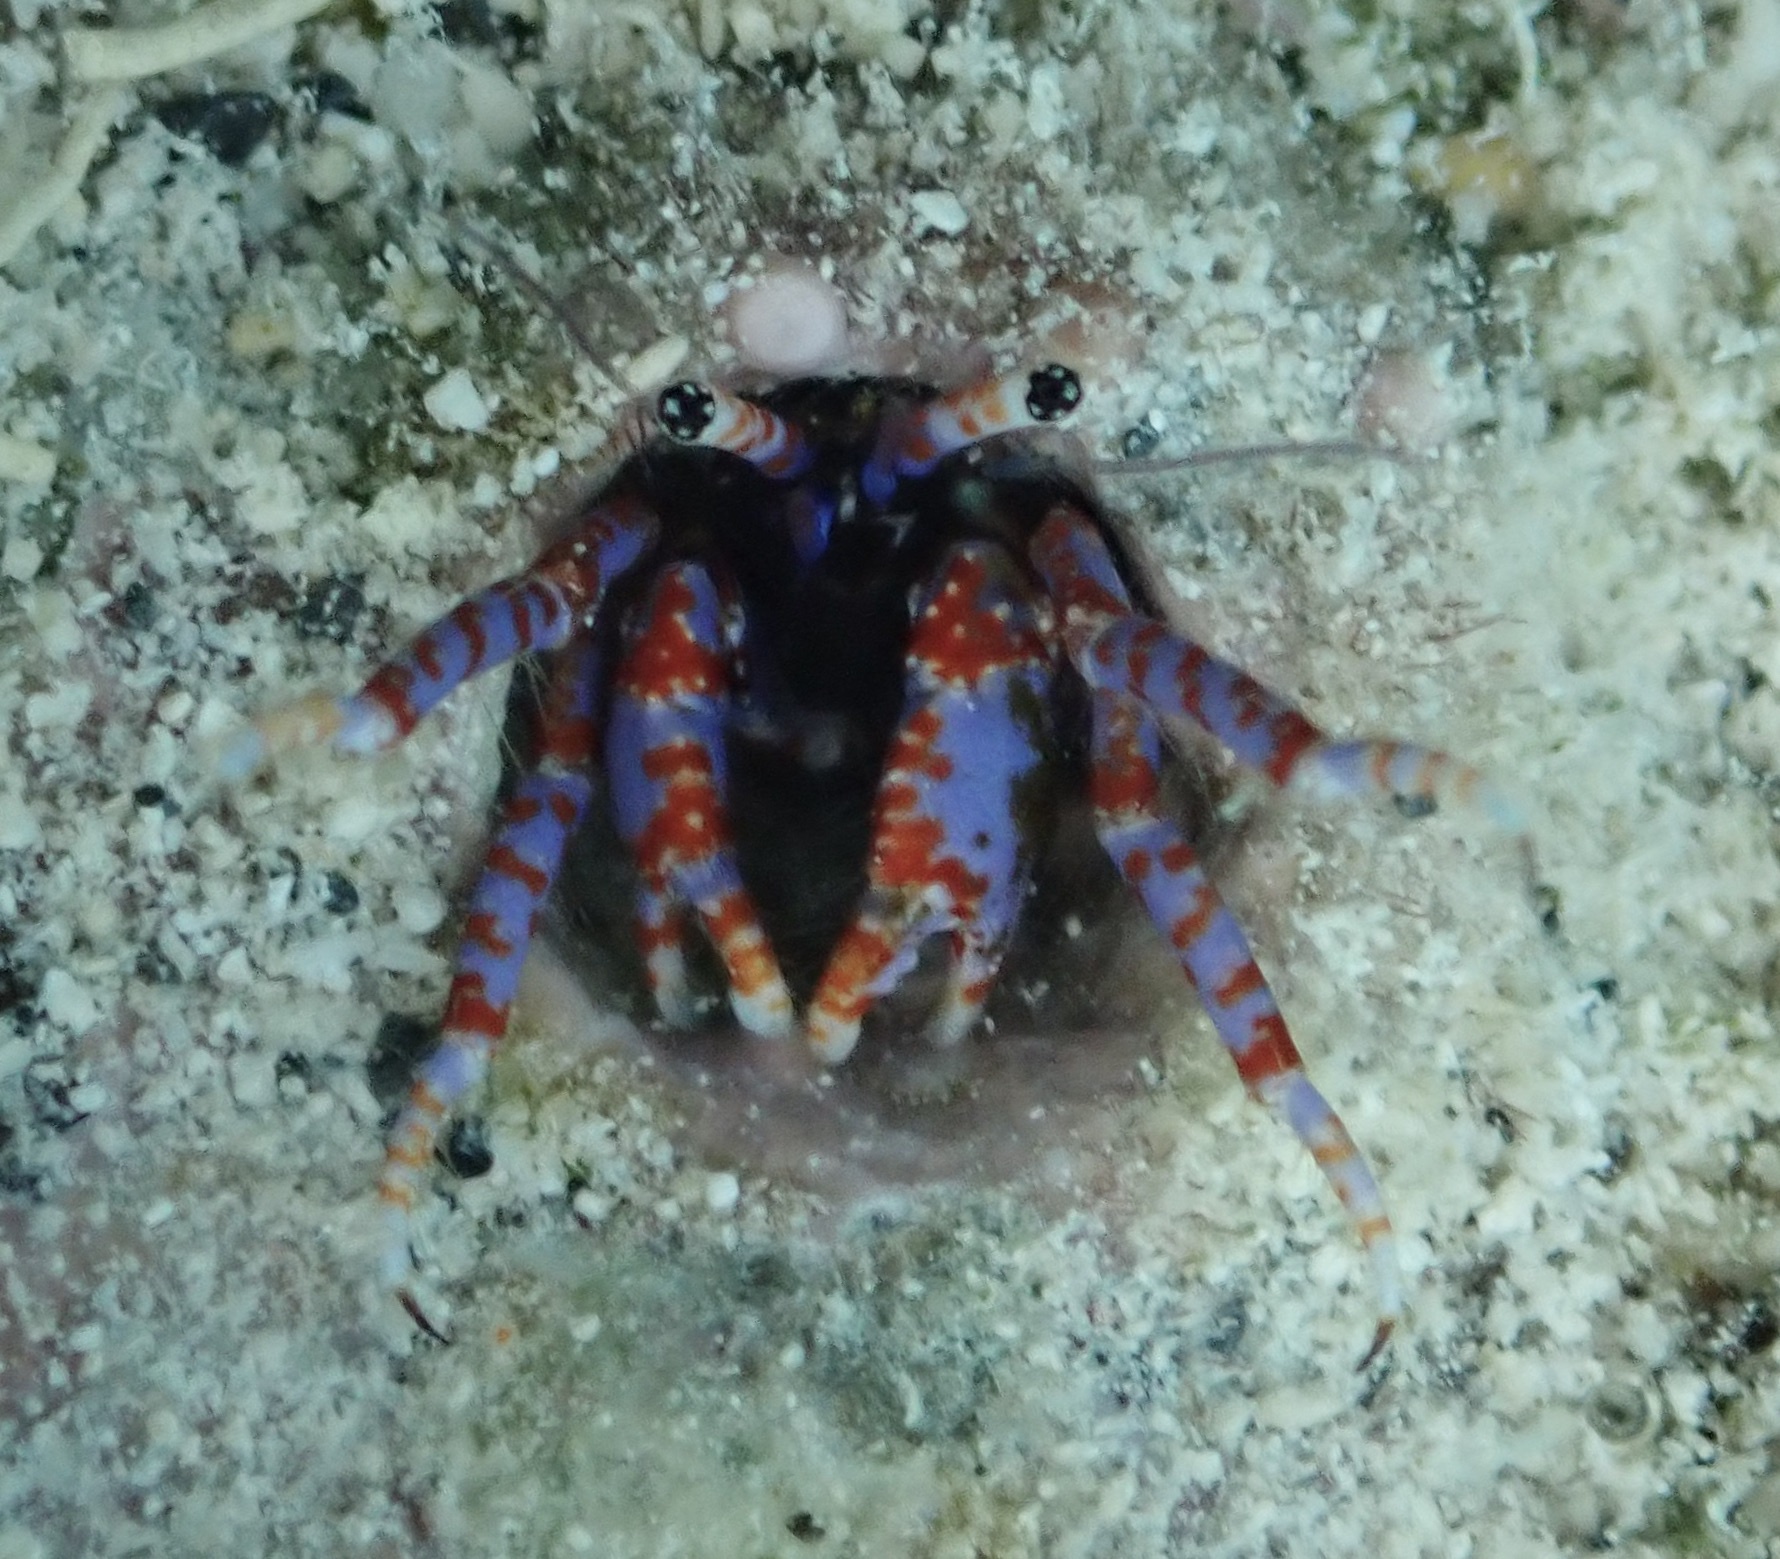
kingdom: Animalia
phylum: Arthropoda
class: Malacostraca
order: Decapoda
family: Diogenidae
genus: Calcinus
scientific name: Calcinus verrillii
